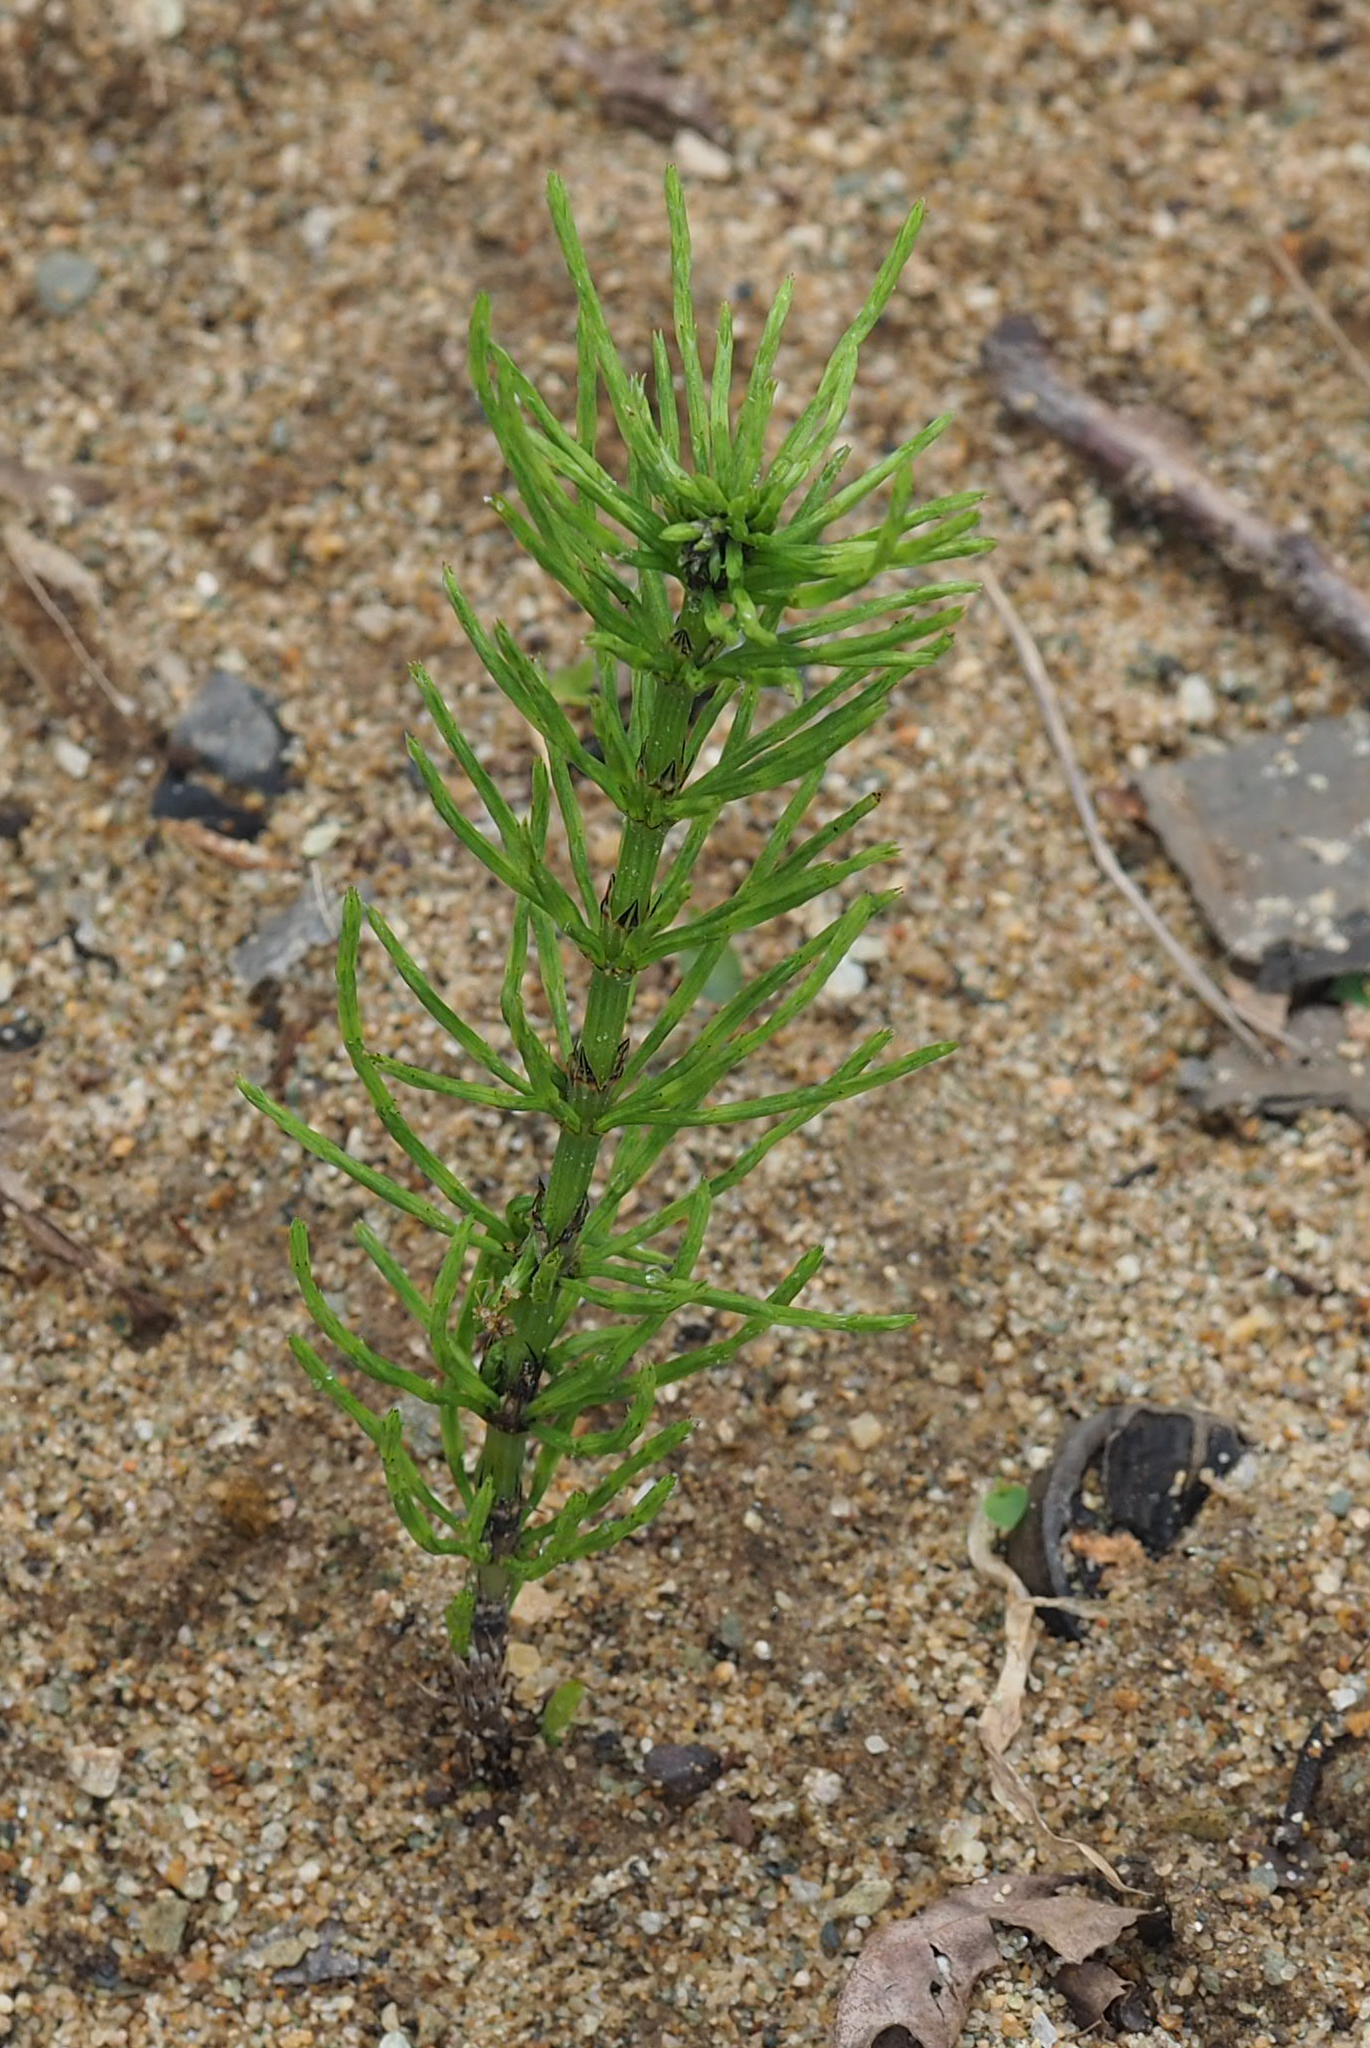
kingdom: Plantae
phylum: Tracheophyta
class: Polypodiopsida
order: Equisetales
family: Equisetaceae
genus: Equisetum
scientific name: Equisetum arvense
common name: Field horsetail
